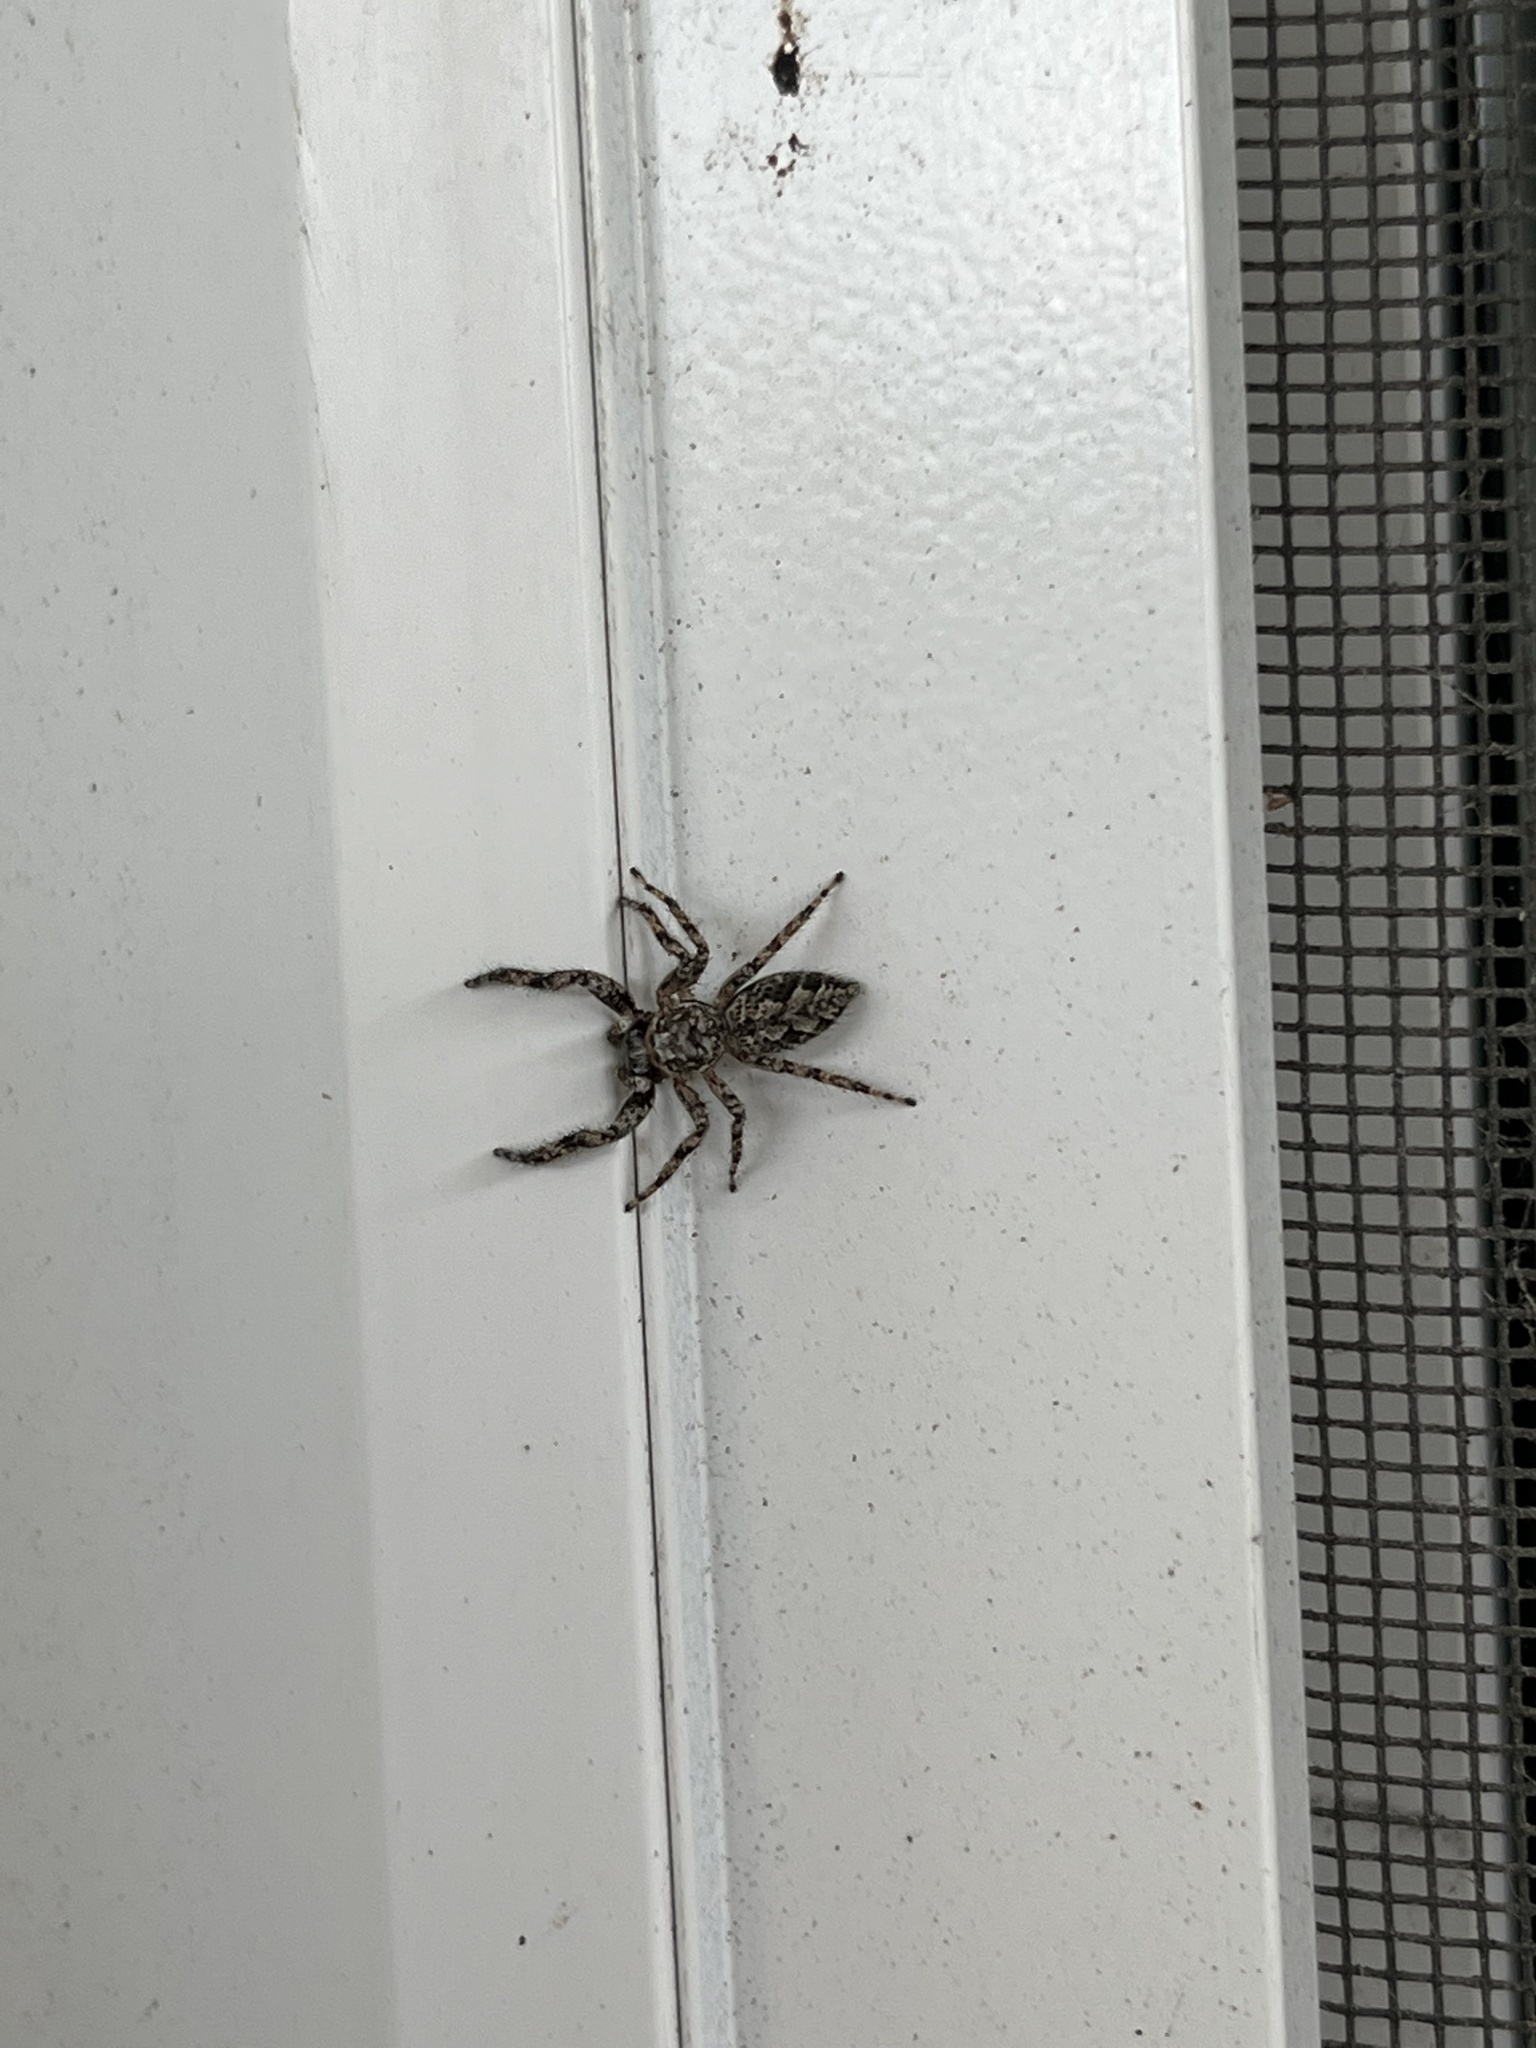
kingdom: Animalia
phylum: Arthropoda
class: Arachnida
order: Araneae
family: Salticidae
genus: Platycryptus
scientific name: Platycryptus undatus
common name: Tan jumping spider
